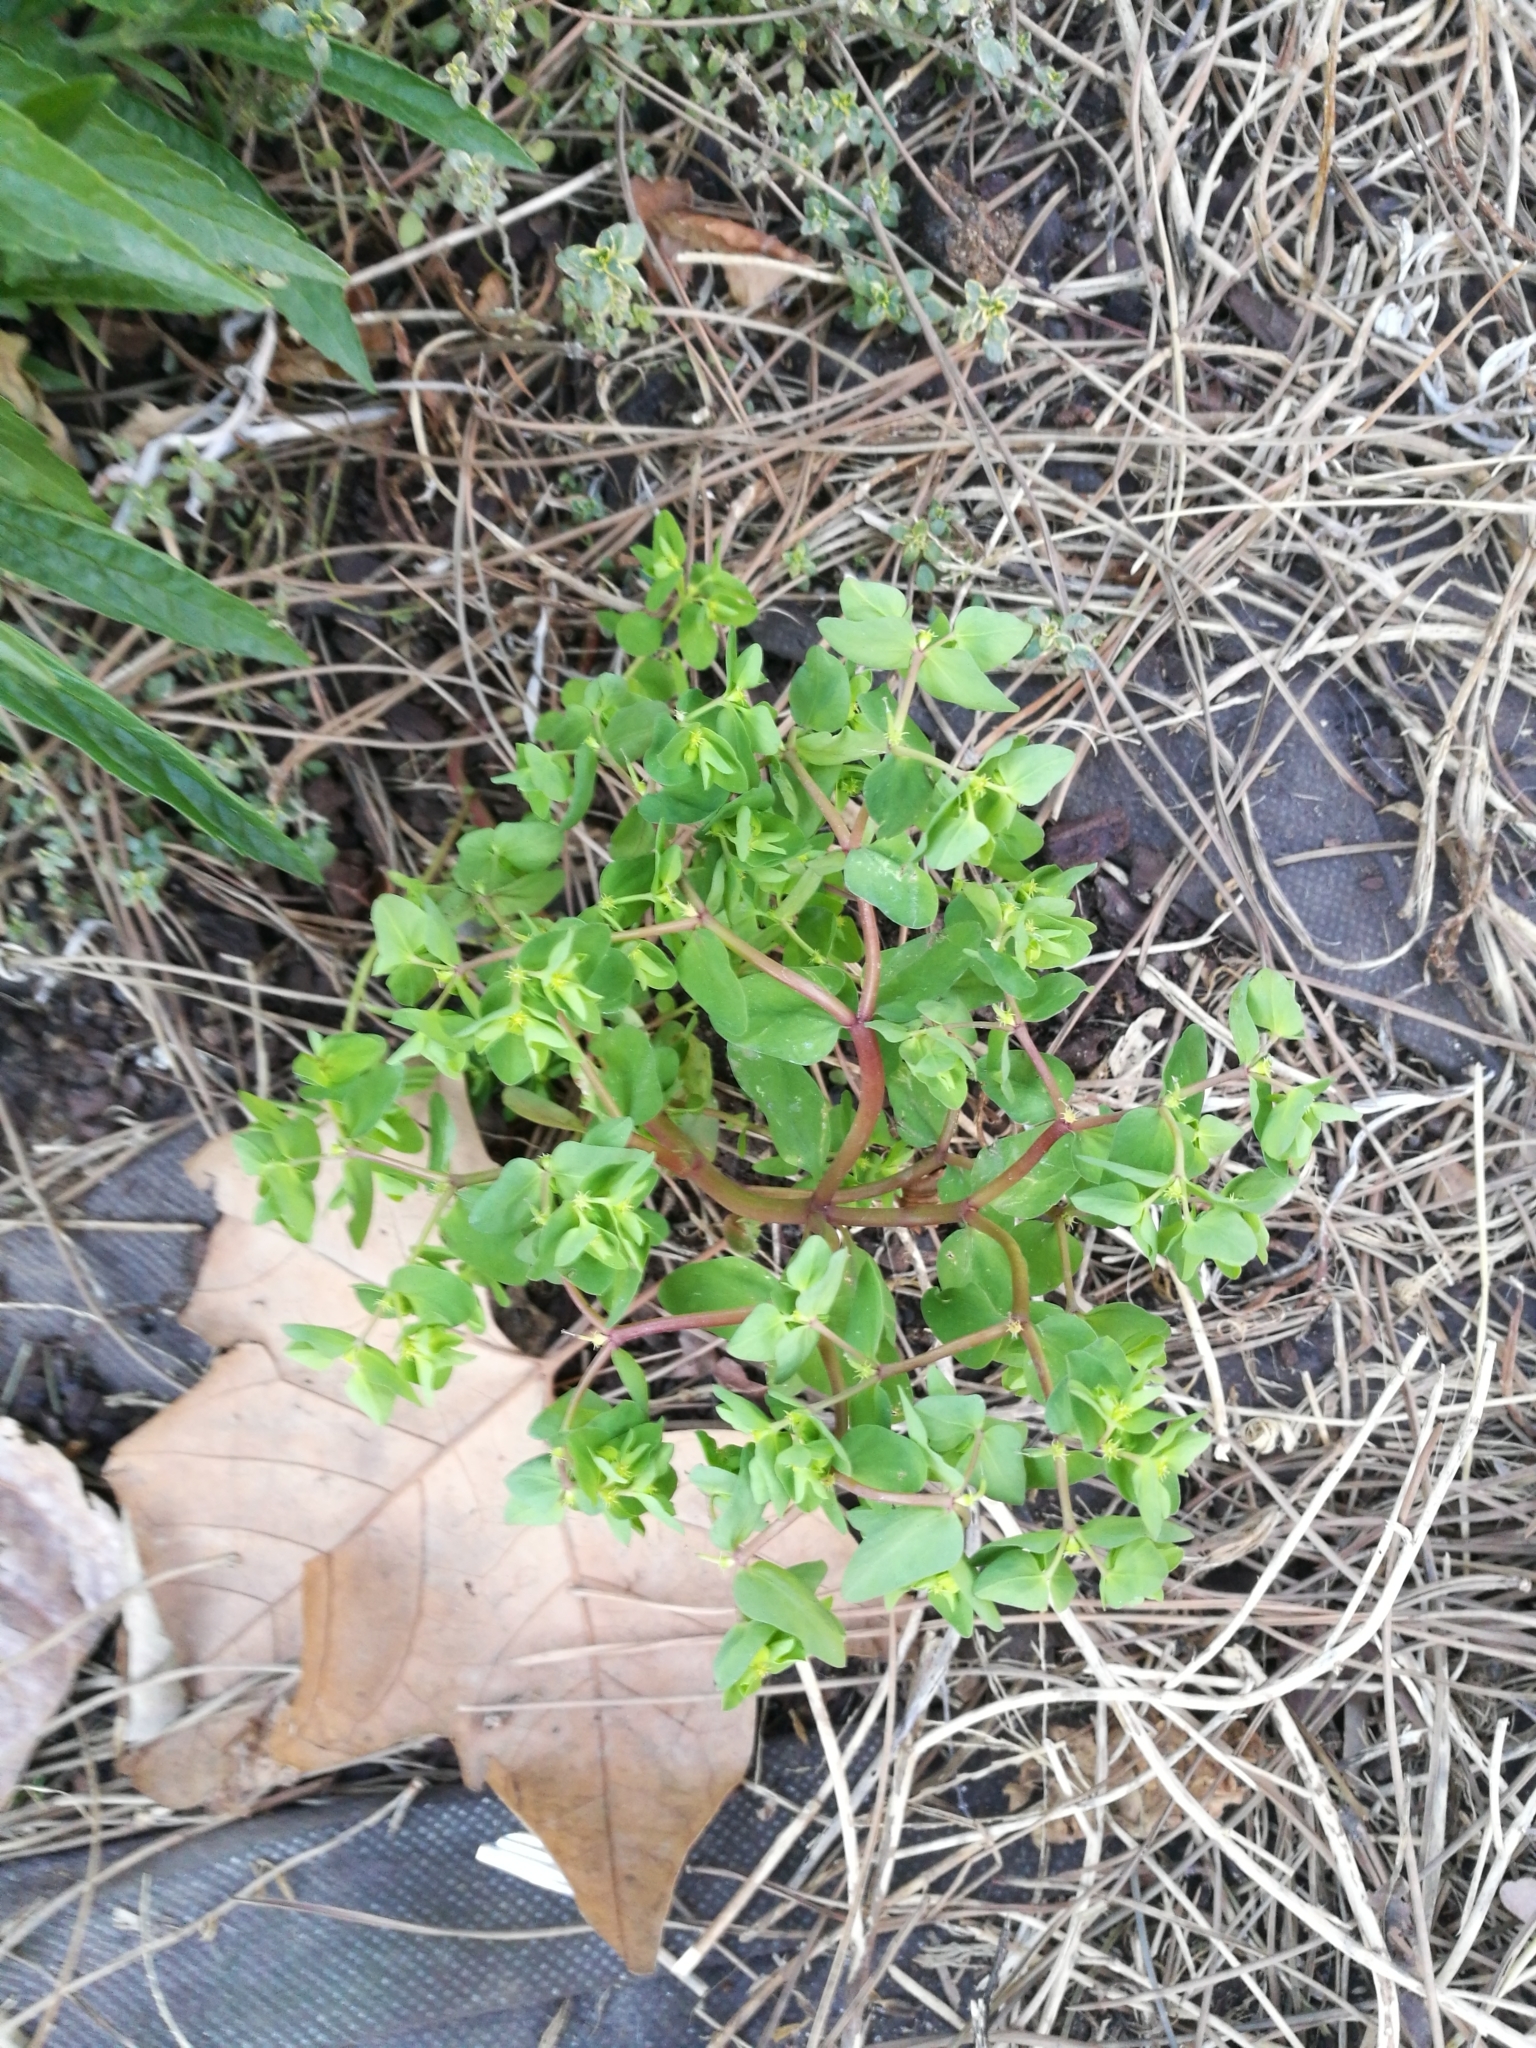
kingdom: Plantae
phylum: Tracheophyta
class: Magnoliopsida
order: Malpighiales
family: Euphorbiaceae
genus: Euphorbia
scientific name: Euphorbia peplus
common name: Petty spurge
